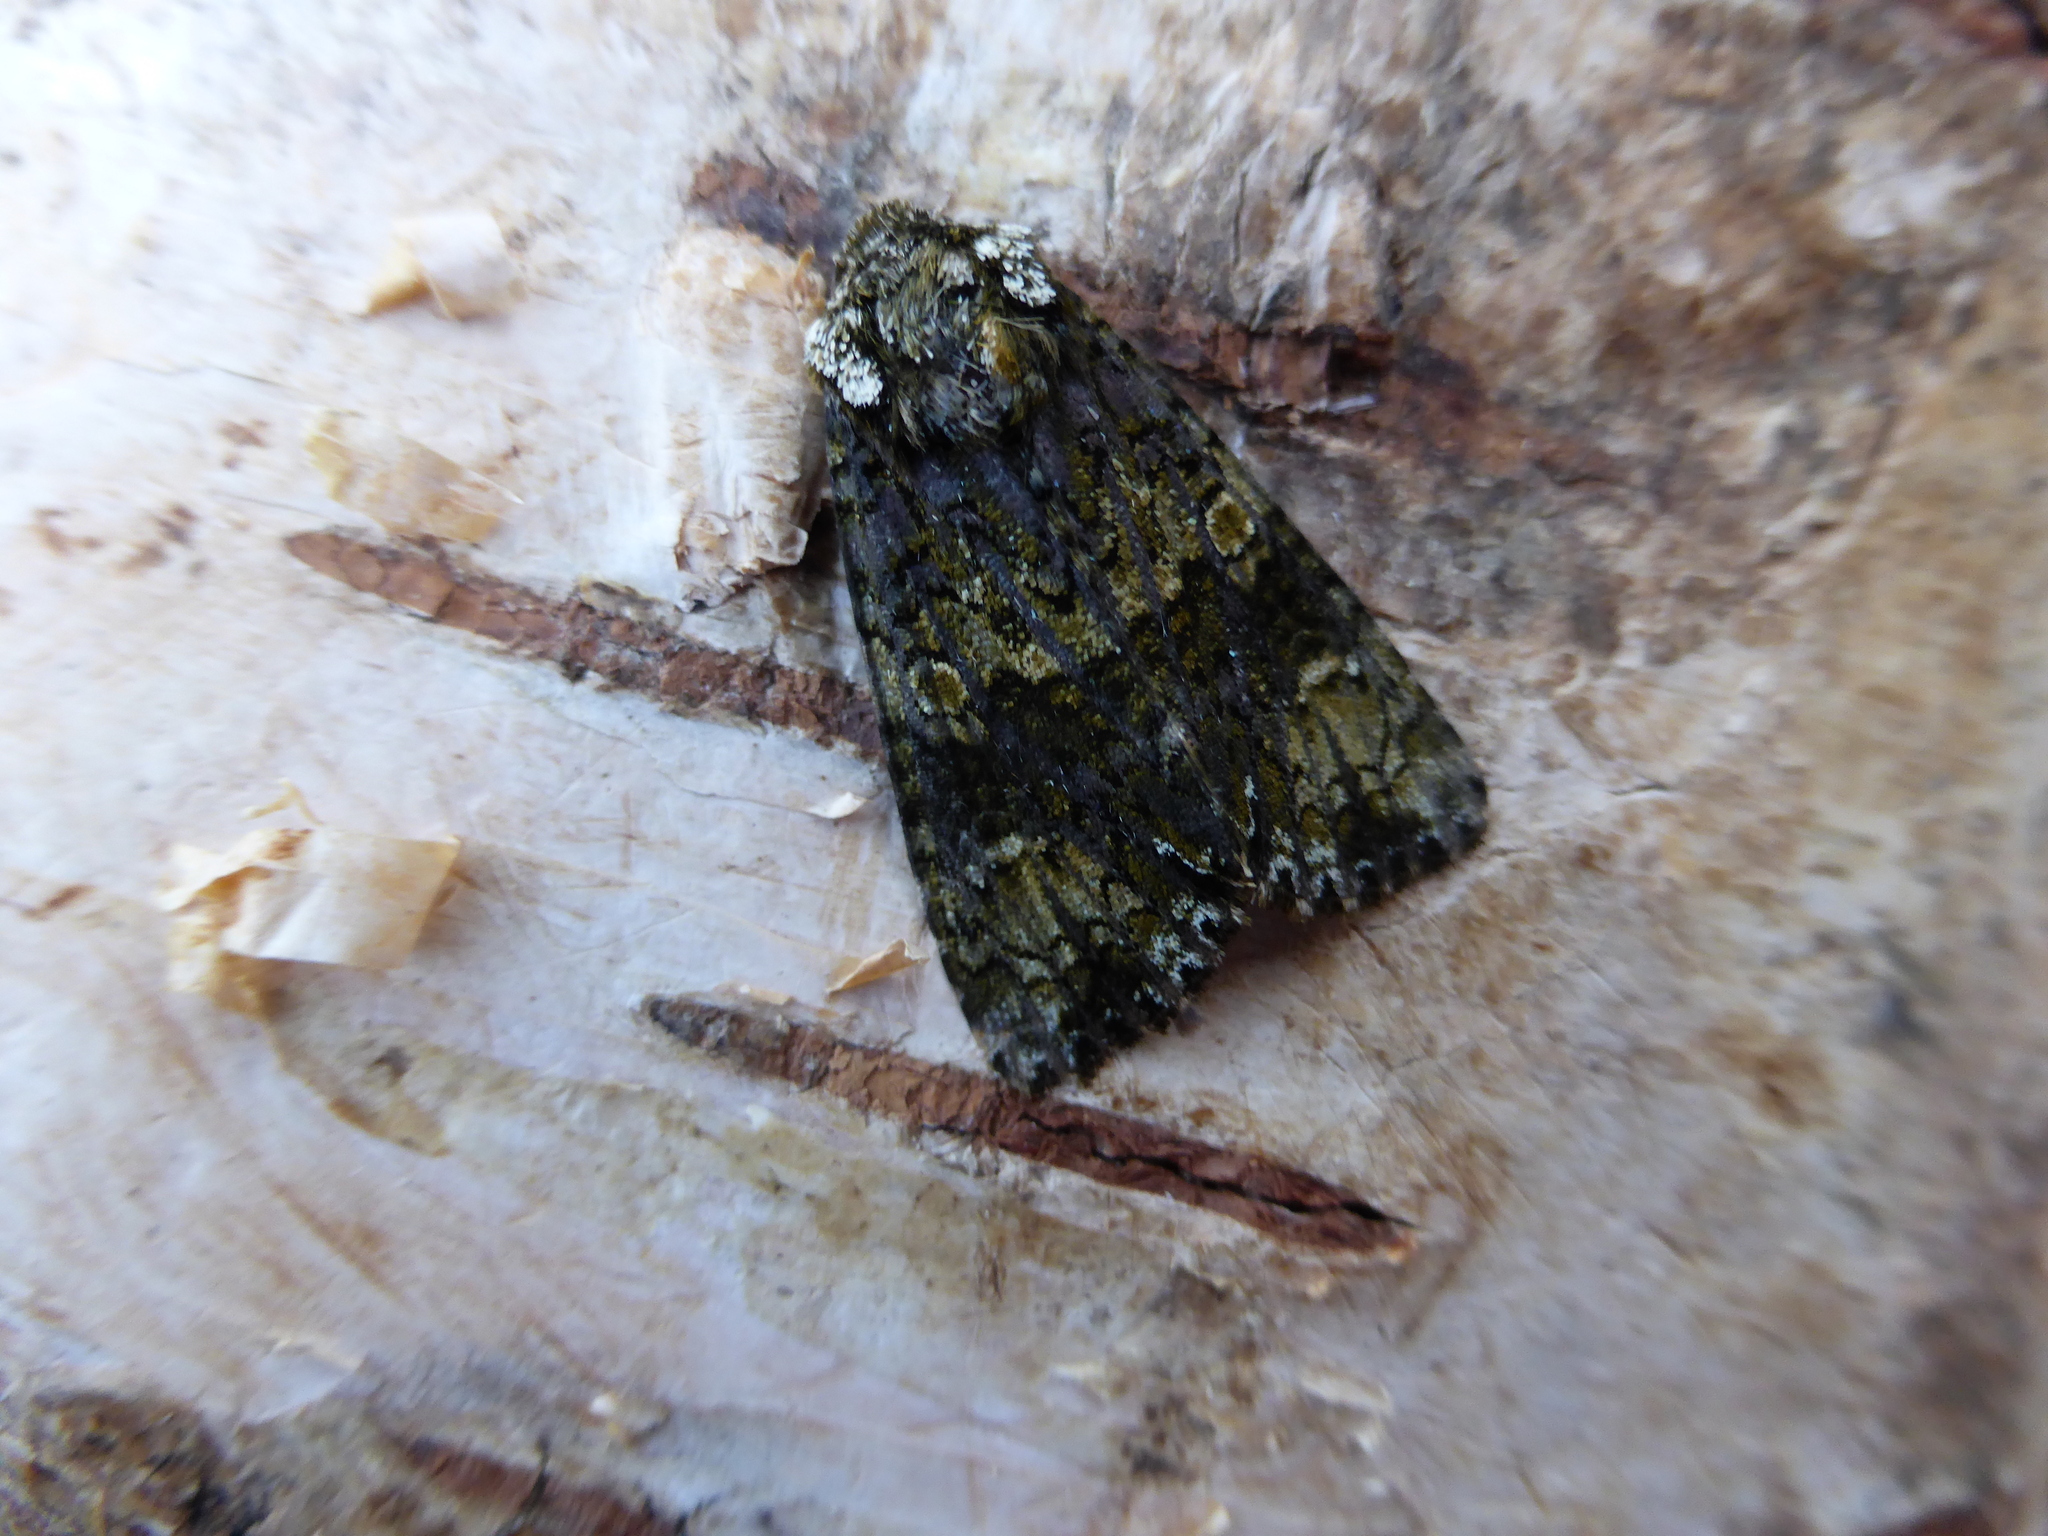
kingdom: Animalia
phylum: Arthropoda
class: Insecta
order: Lepidoptera
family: Noctuidae
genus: Craniophora
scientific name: Craniophora ligustri
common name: Coronet
